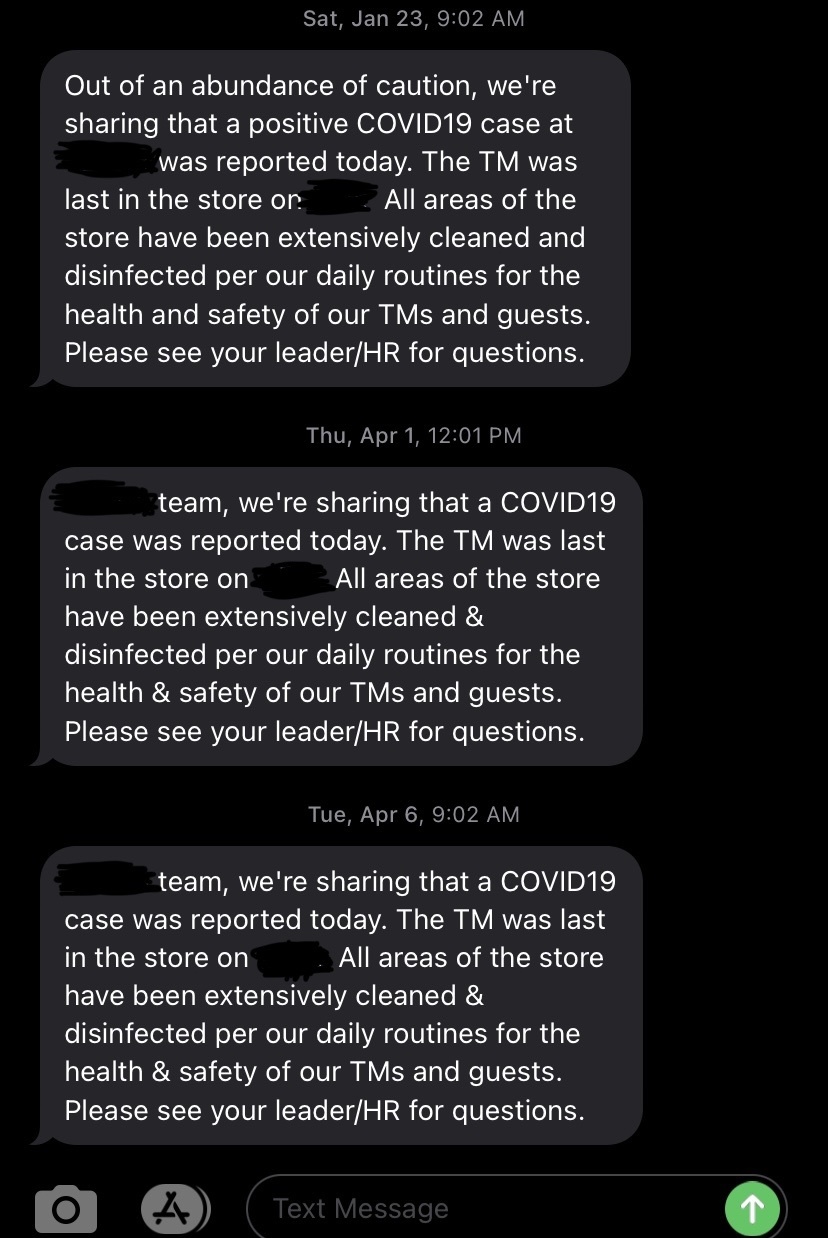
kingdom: Viruses
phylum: Pisuviricota
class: Pisoniviricetes
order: Nidovirales
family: Coronaviridae
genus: Betacoronavirus
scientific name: Betacoronavirus
